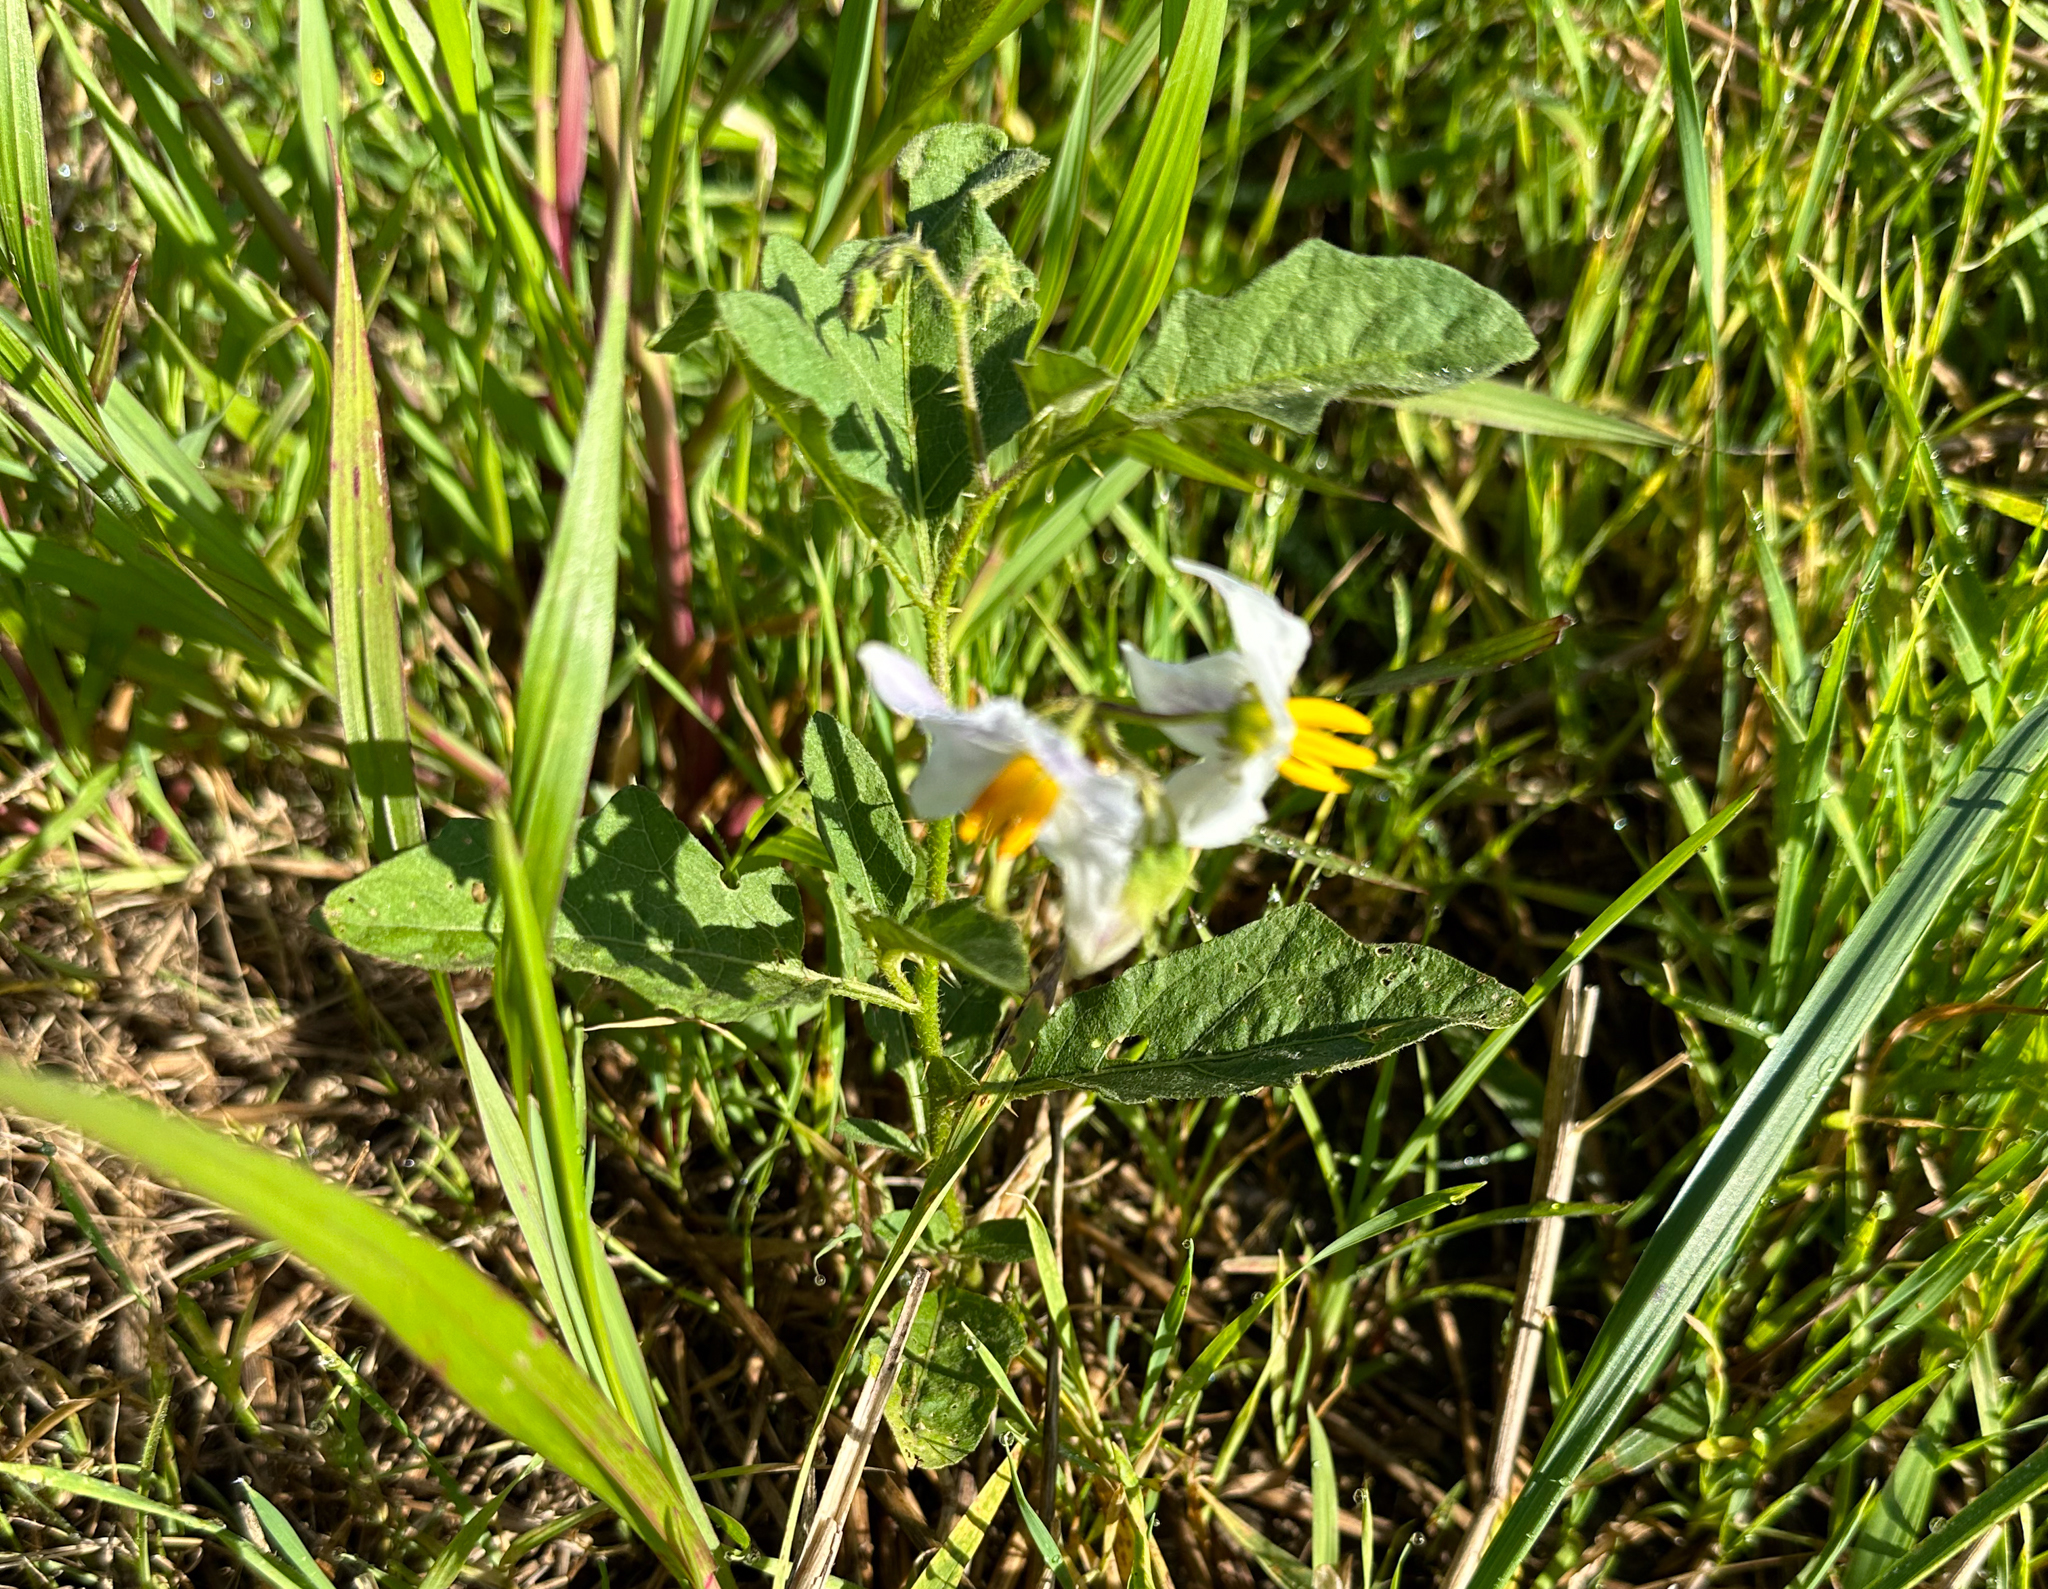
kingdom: Plantae
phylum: Tracheophyta
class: Magnoliopsida
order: Solanales
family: Solanaceae
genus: Solanum
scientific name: Solanum carolinense
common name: Horse-nettle
